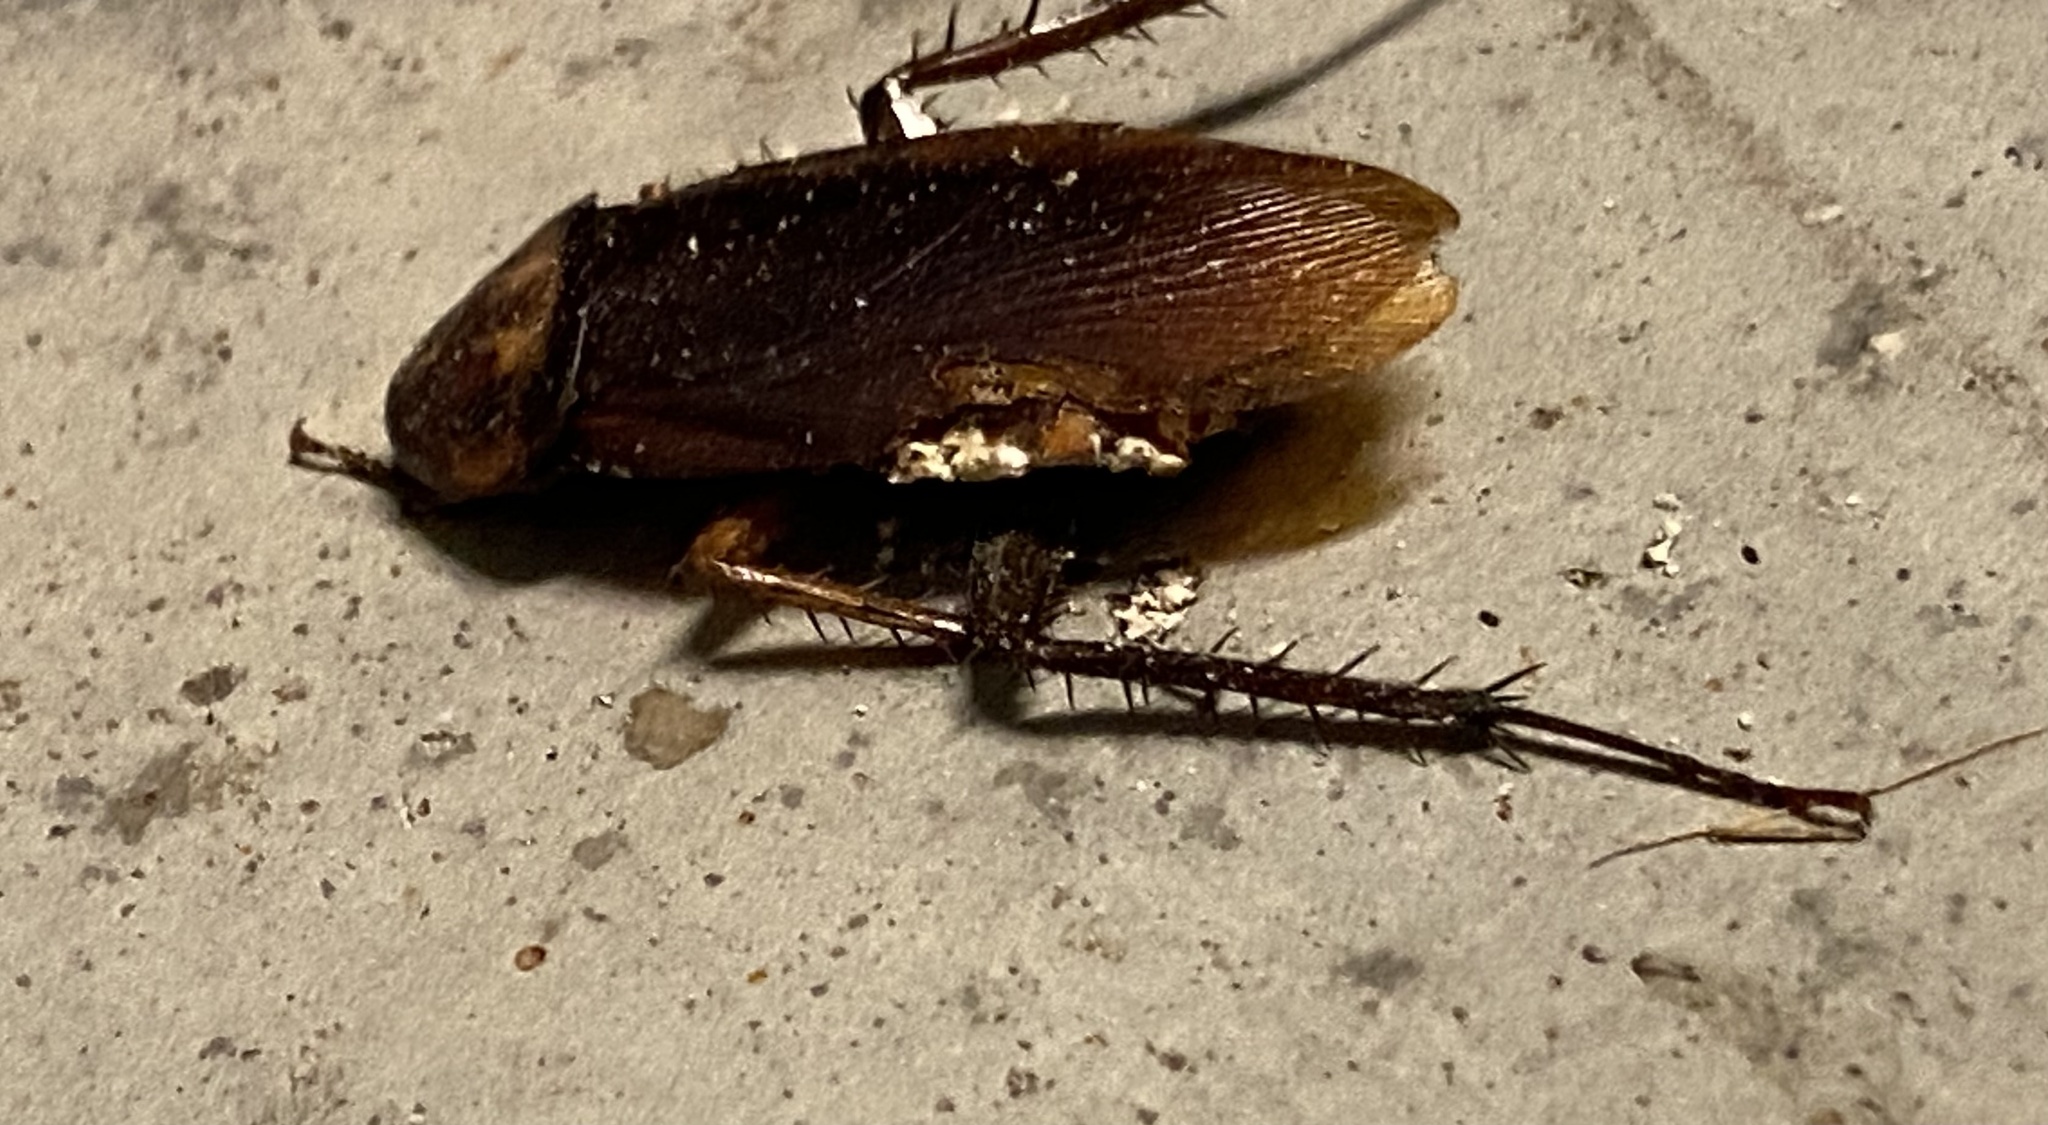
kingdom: Animalia
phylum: Arthropoda
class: Insecta
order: Blattodea
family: Blattidae
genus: Periplaneta
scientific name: Periplaneta americana
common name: American cockroach
